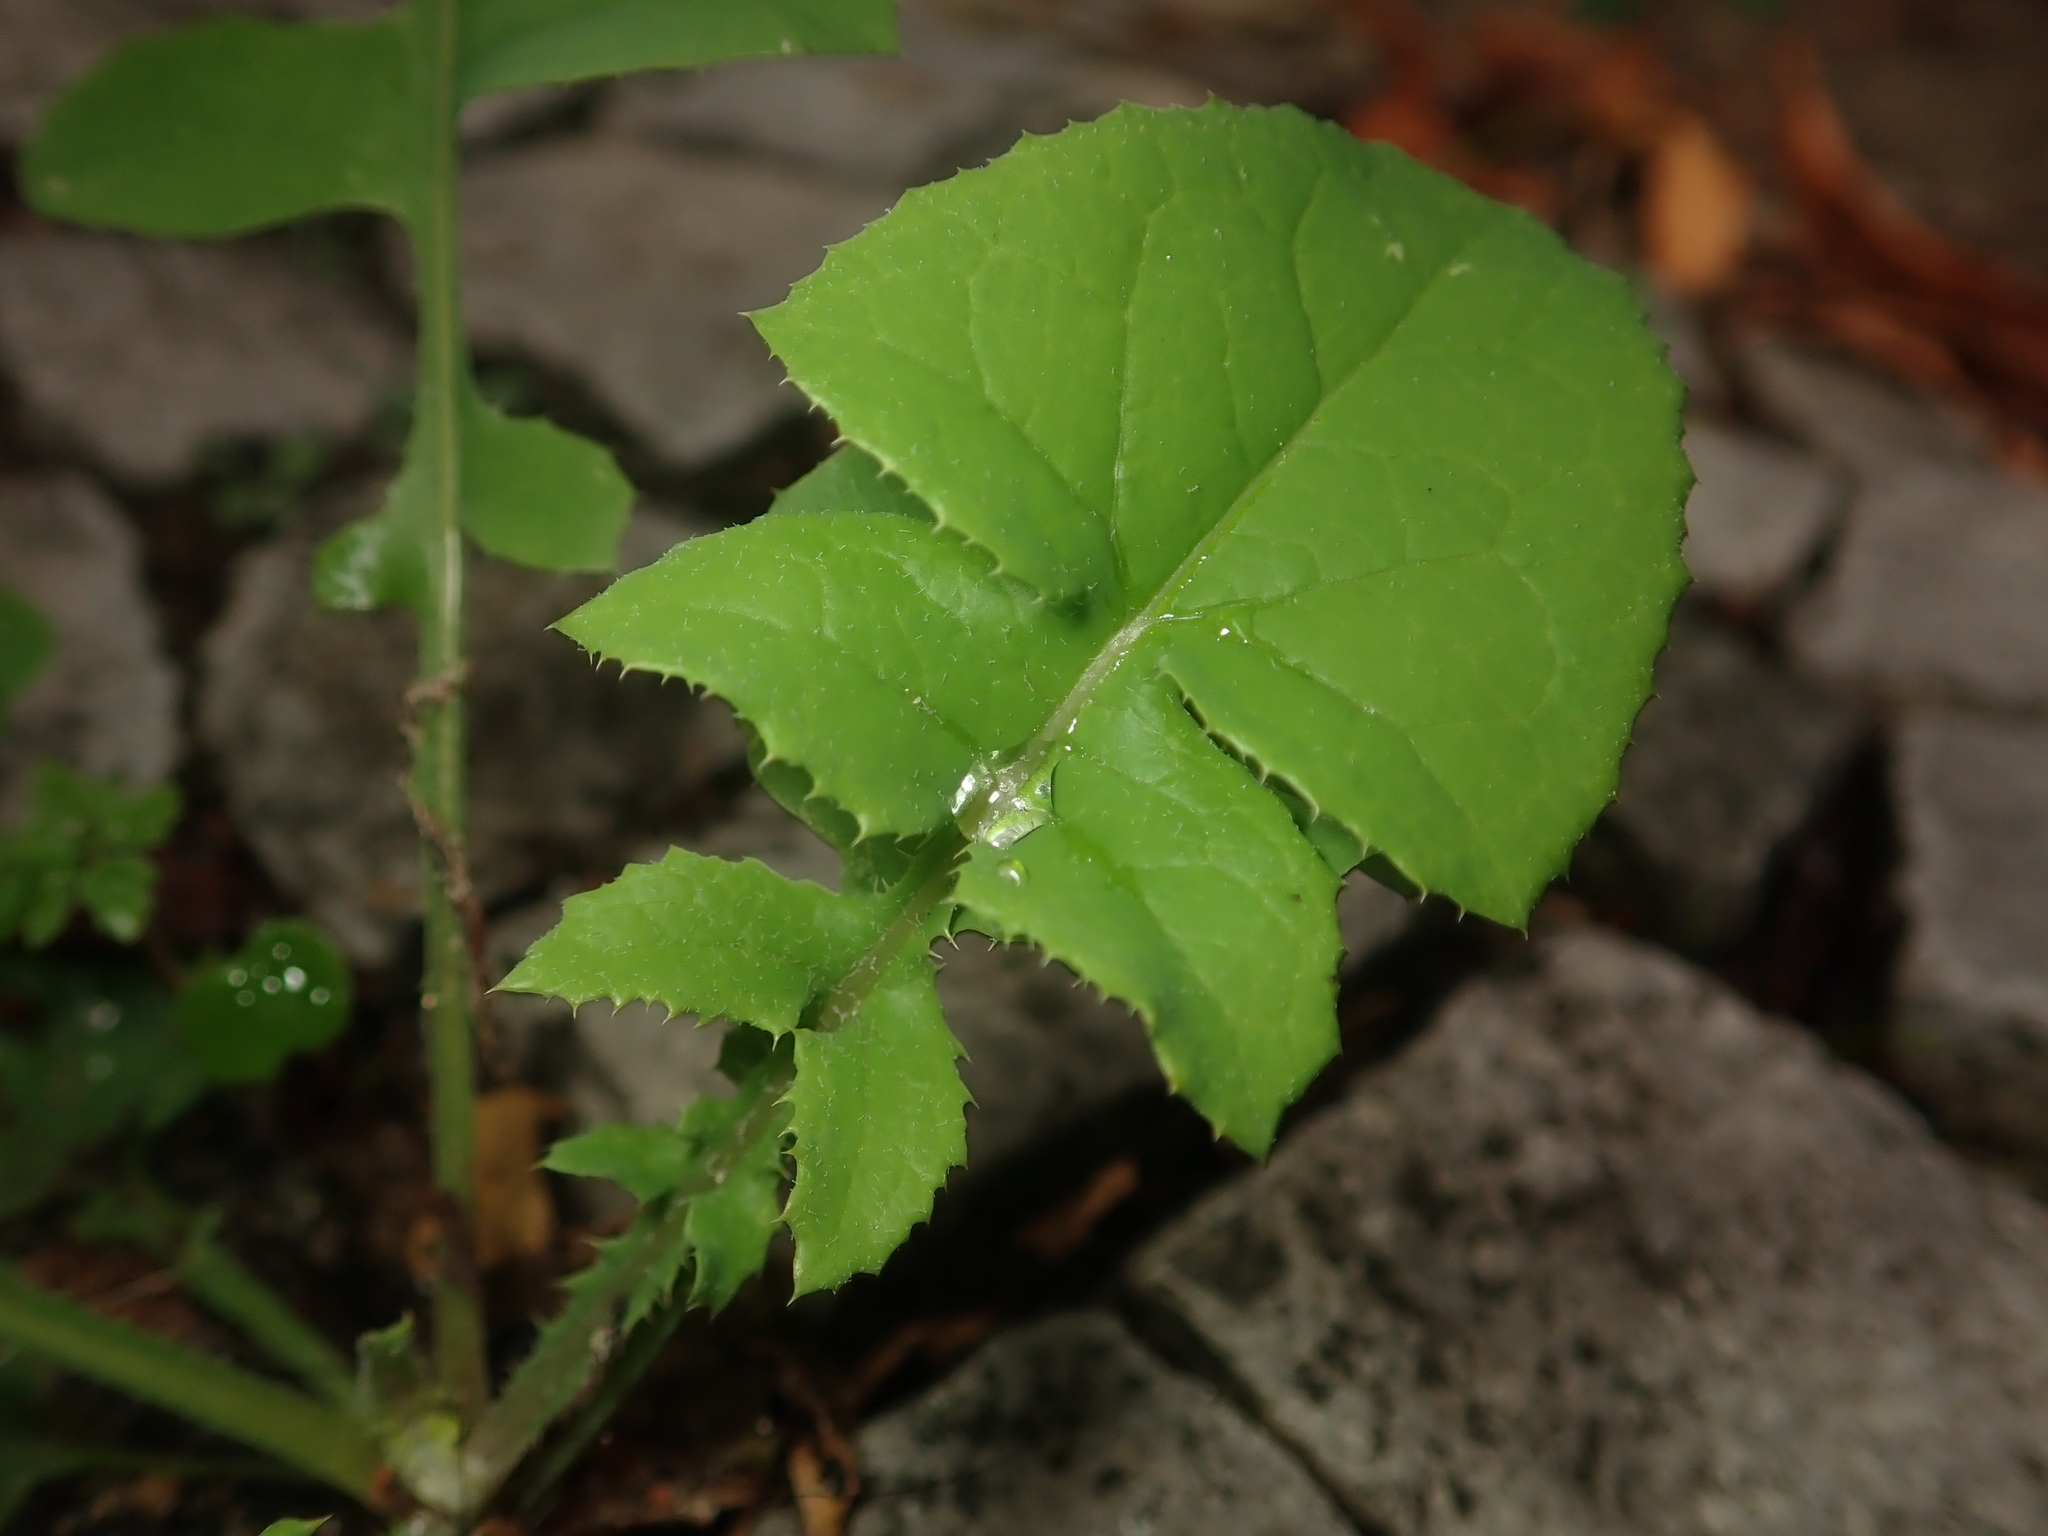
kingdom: Plantae
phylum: Tracheophyta
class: Magnoliopsida
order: Asterales
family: Asteraceae
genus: Sonchus
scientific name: Sonchus oleraceus
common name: Common sowthistle
